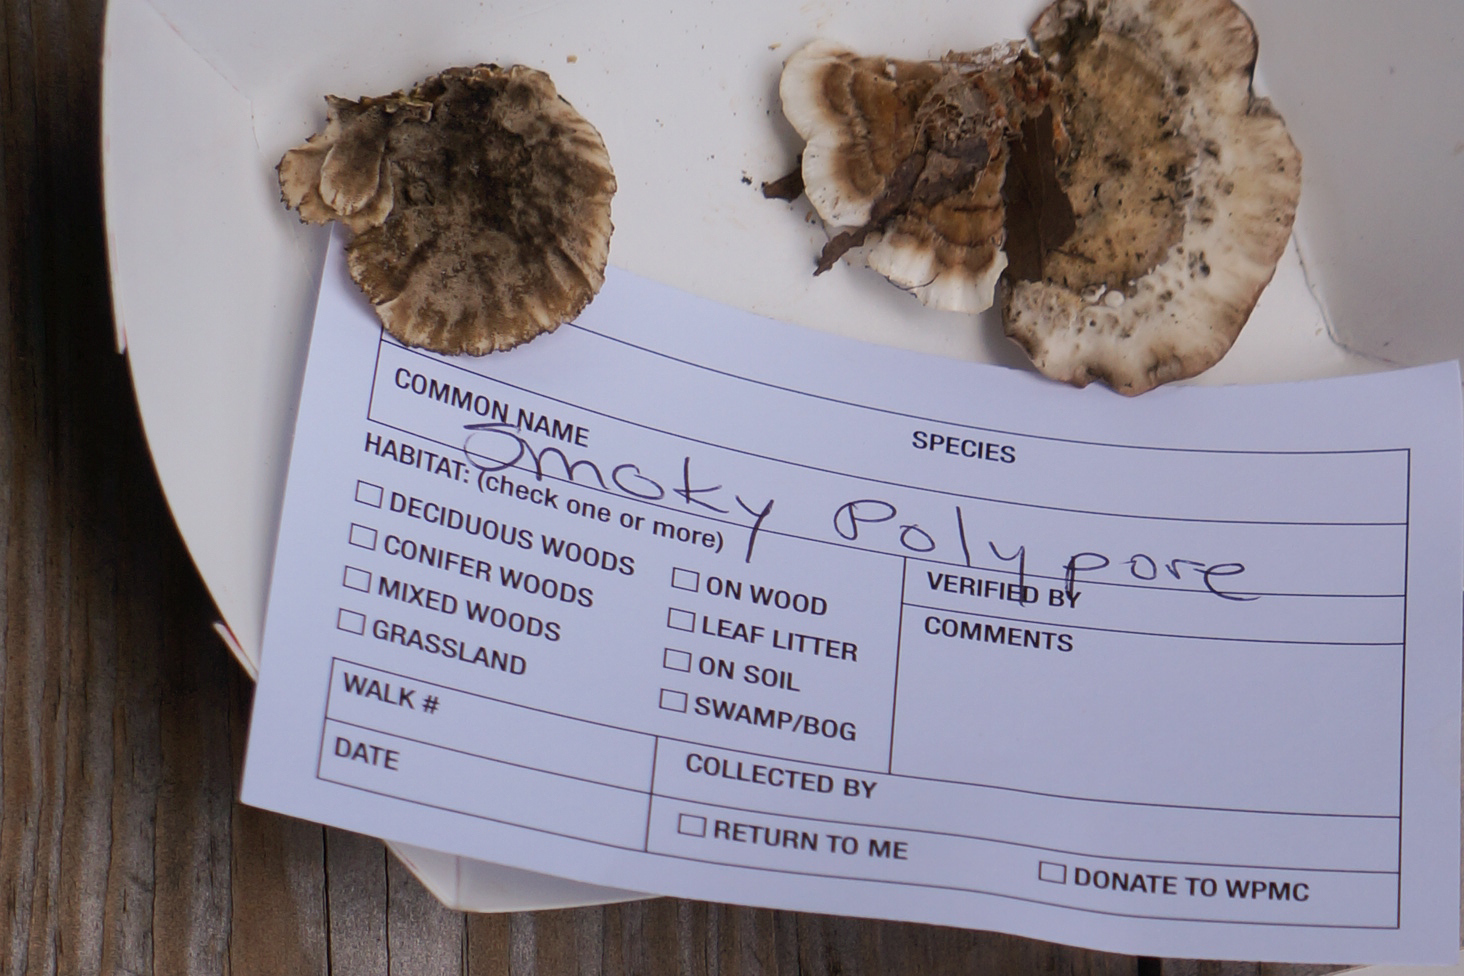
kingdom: Fungi
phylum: Basidiomycota
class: Agaricomycetes
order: Polyporales
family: Phanerochaetaceae
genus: Bjerkandera
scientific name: Bjerkandera adusta
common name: Smoky bracket
